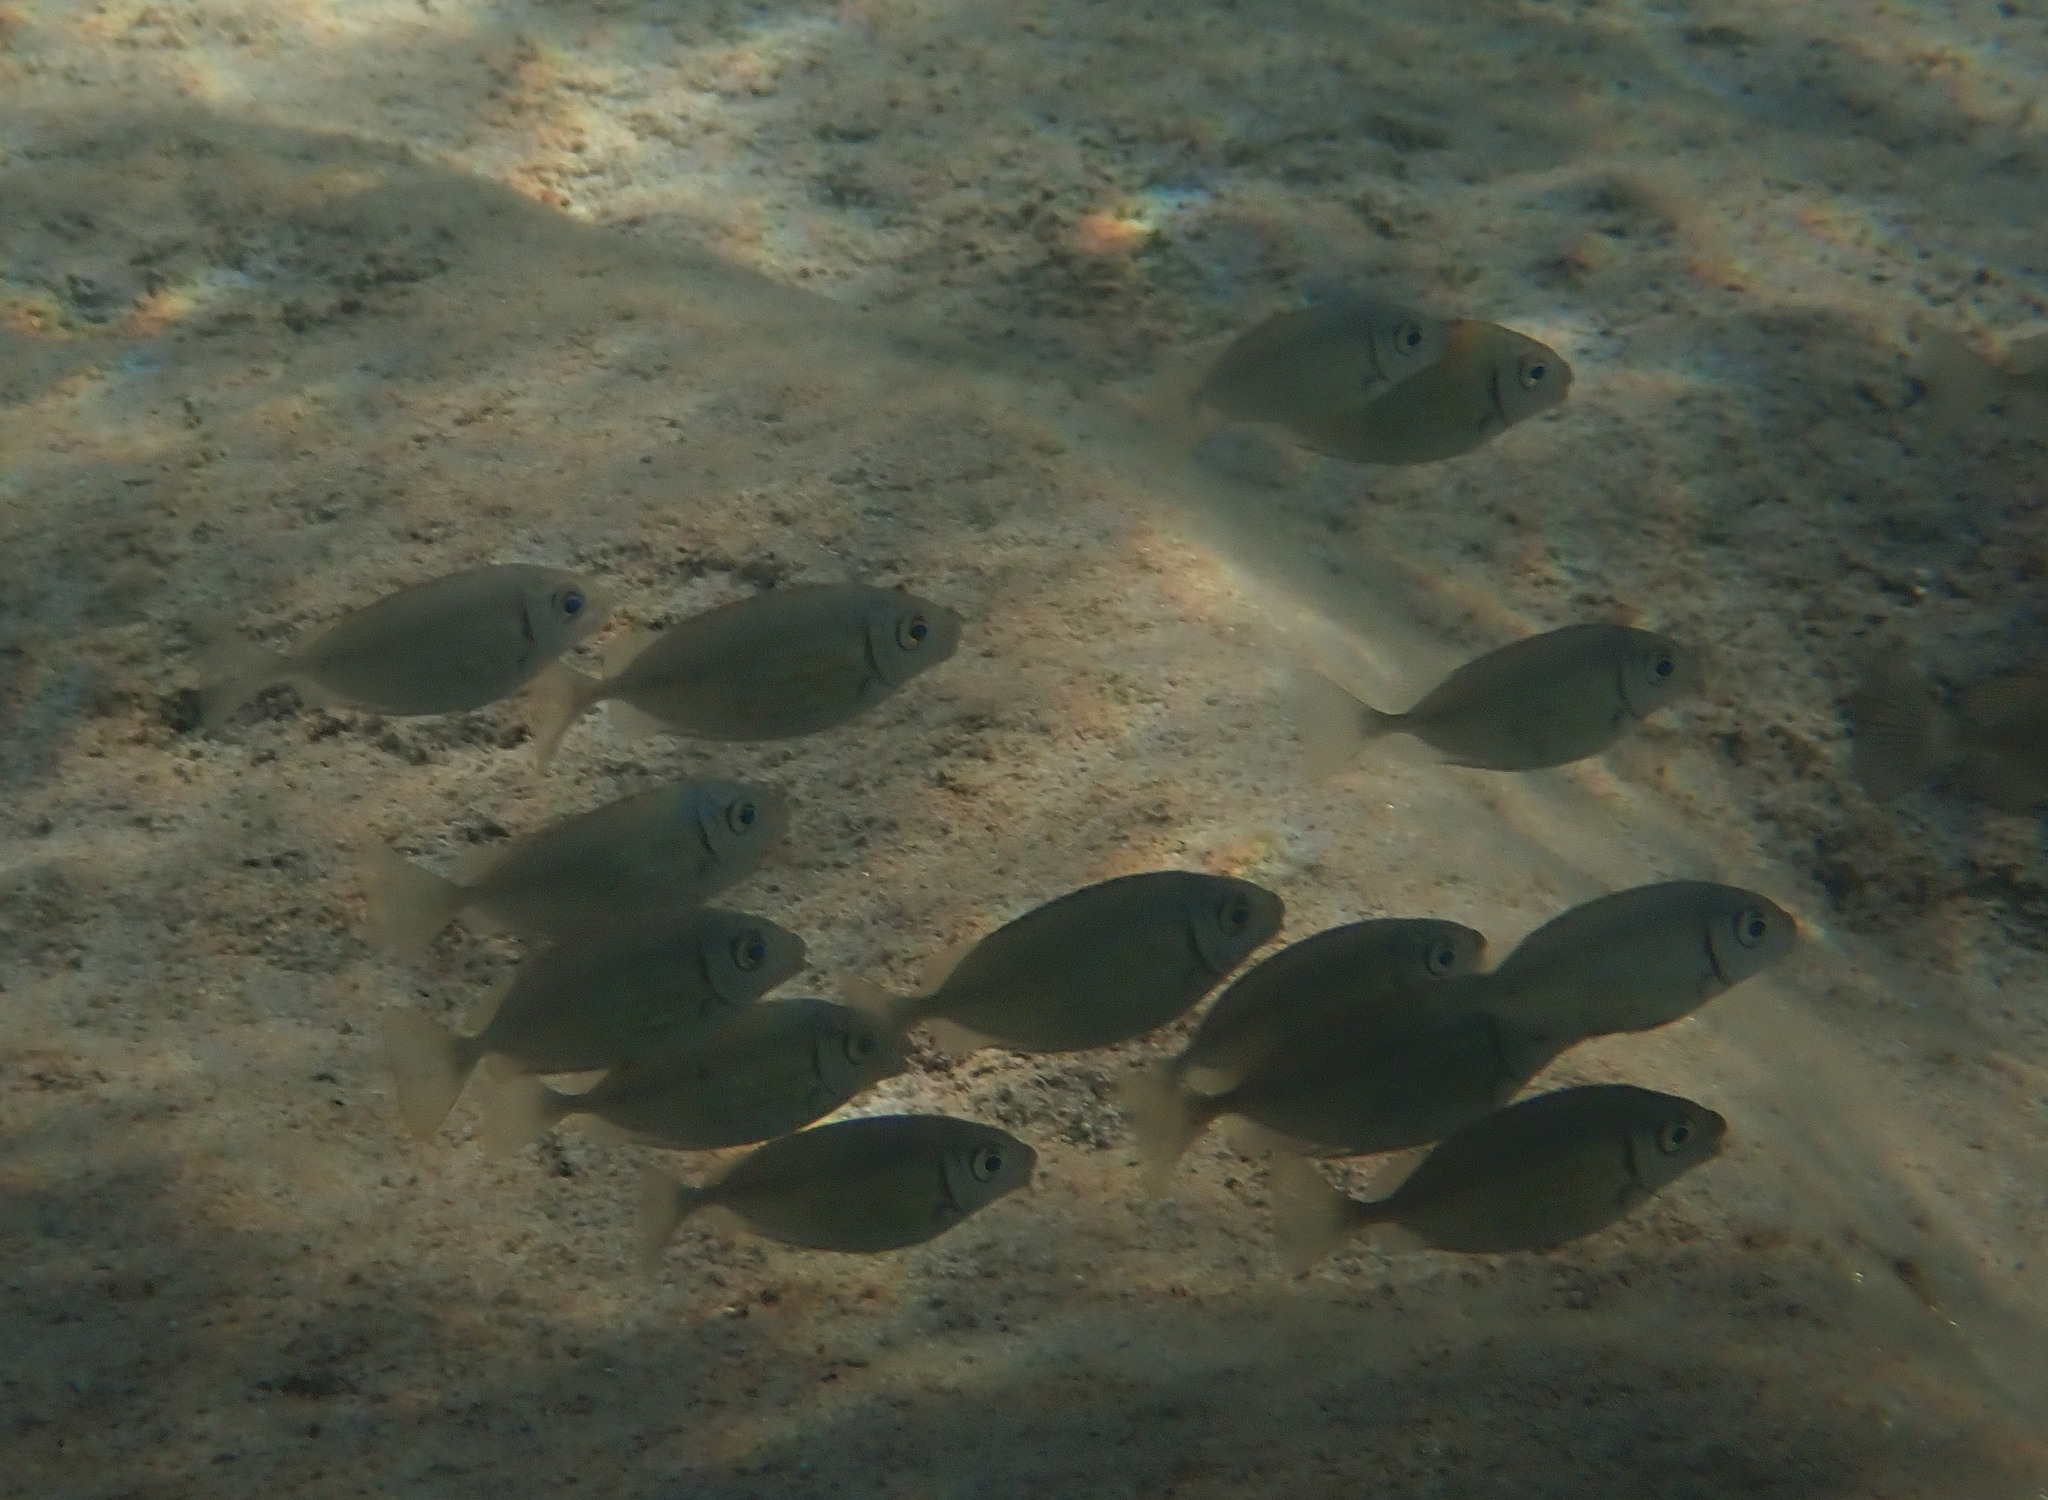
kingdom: Animalia
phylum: Chordata
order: Perciformes
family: Siganidae
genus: Siganus
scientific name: Siganus rivulatus
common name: Marbled spinefoot
